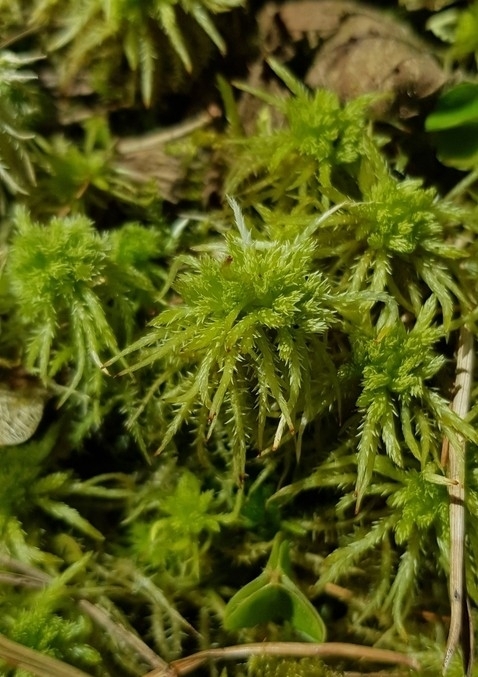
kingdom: Plantae
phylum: Bryophyta
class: Sphagnopsida
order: Sphagnales
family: Sphagnaceae
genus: Sphagnum
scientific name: Sphagnum squarrosum
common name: Shaggy peat moss
